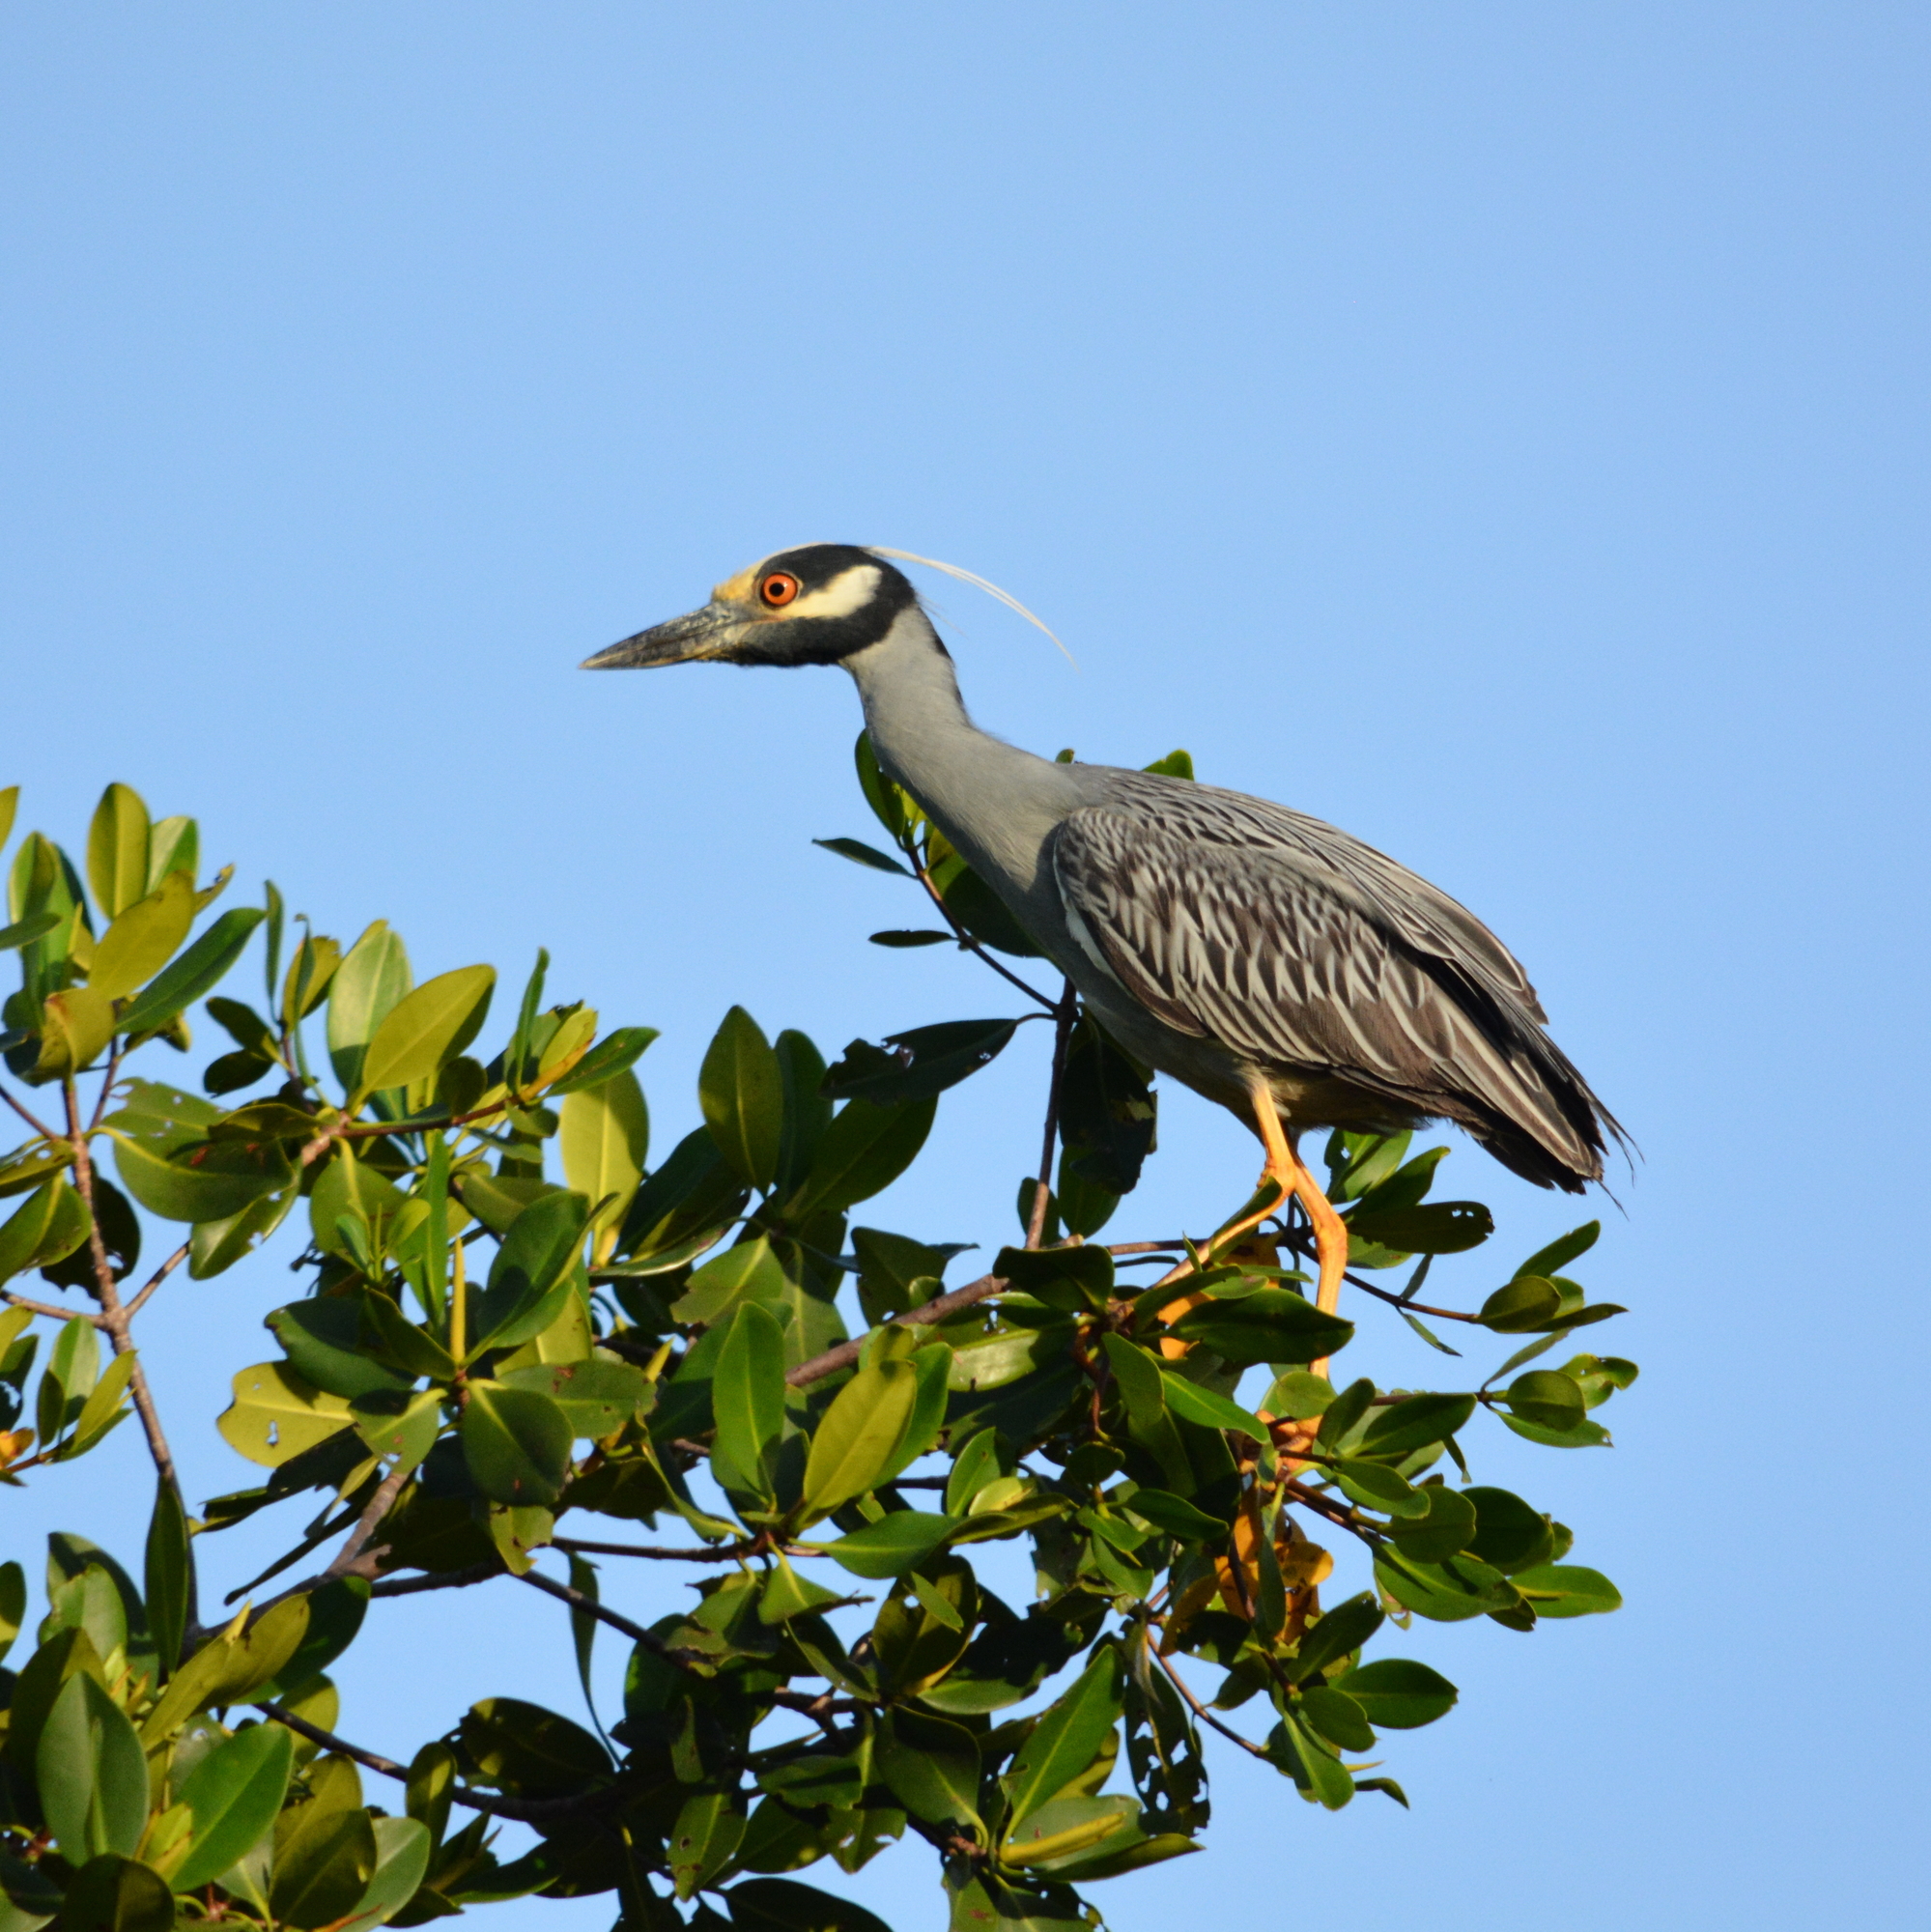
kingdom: Animalia
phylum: Chordata
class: Aves
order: Pelecaniformes
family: Ardeidae
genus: Nyctanassa
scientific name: Nyctanassa violacea
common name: Yellow-crowned night heron
